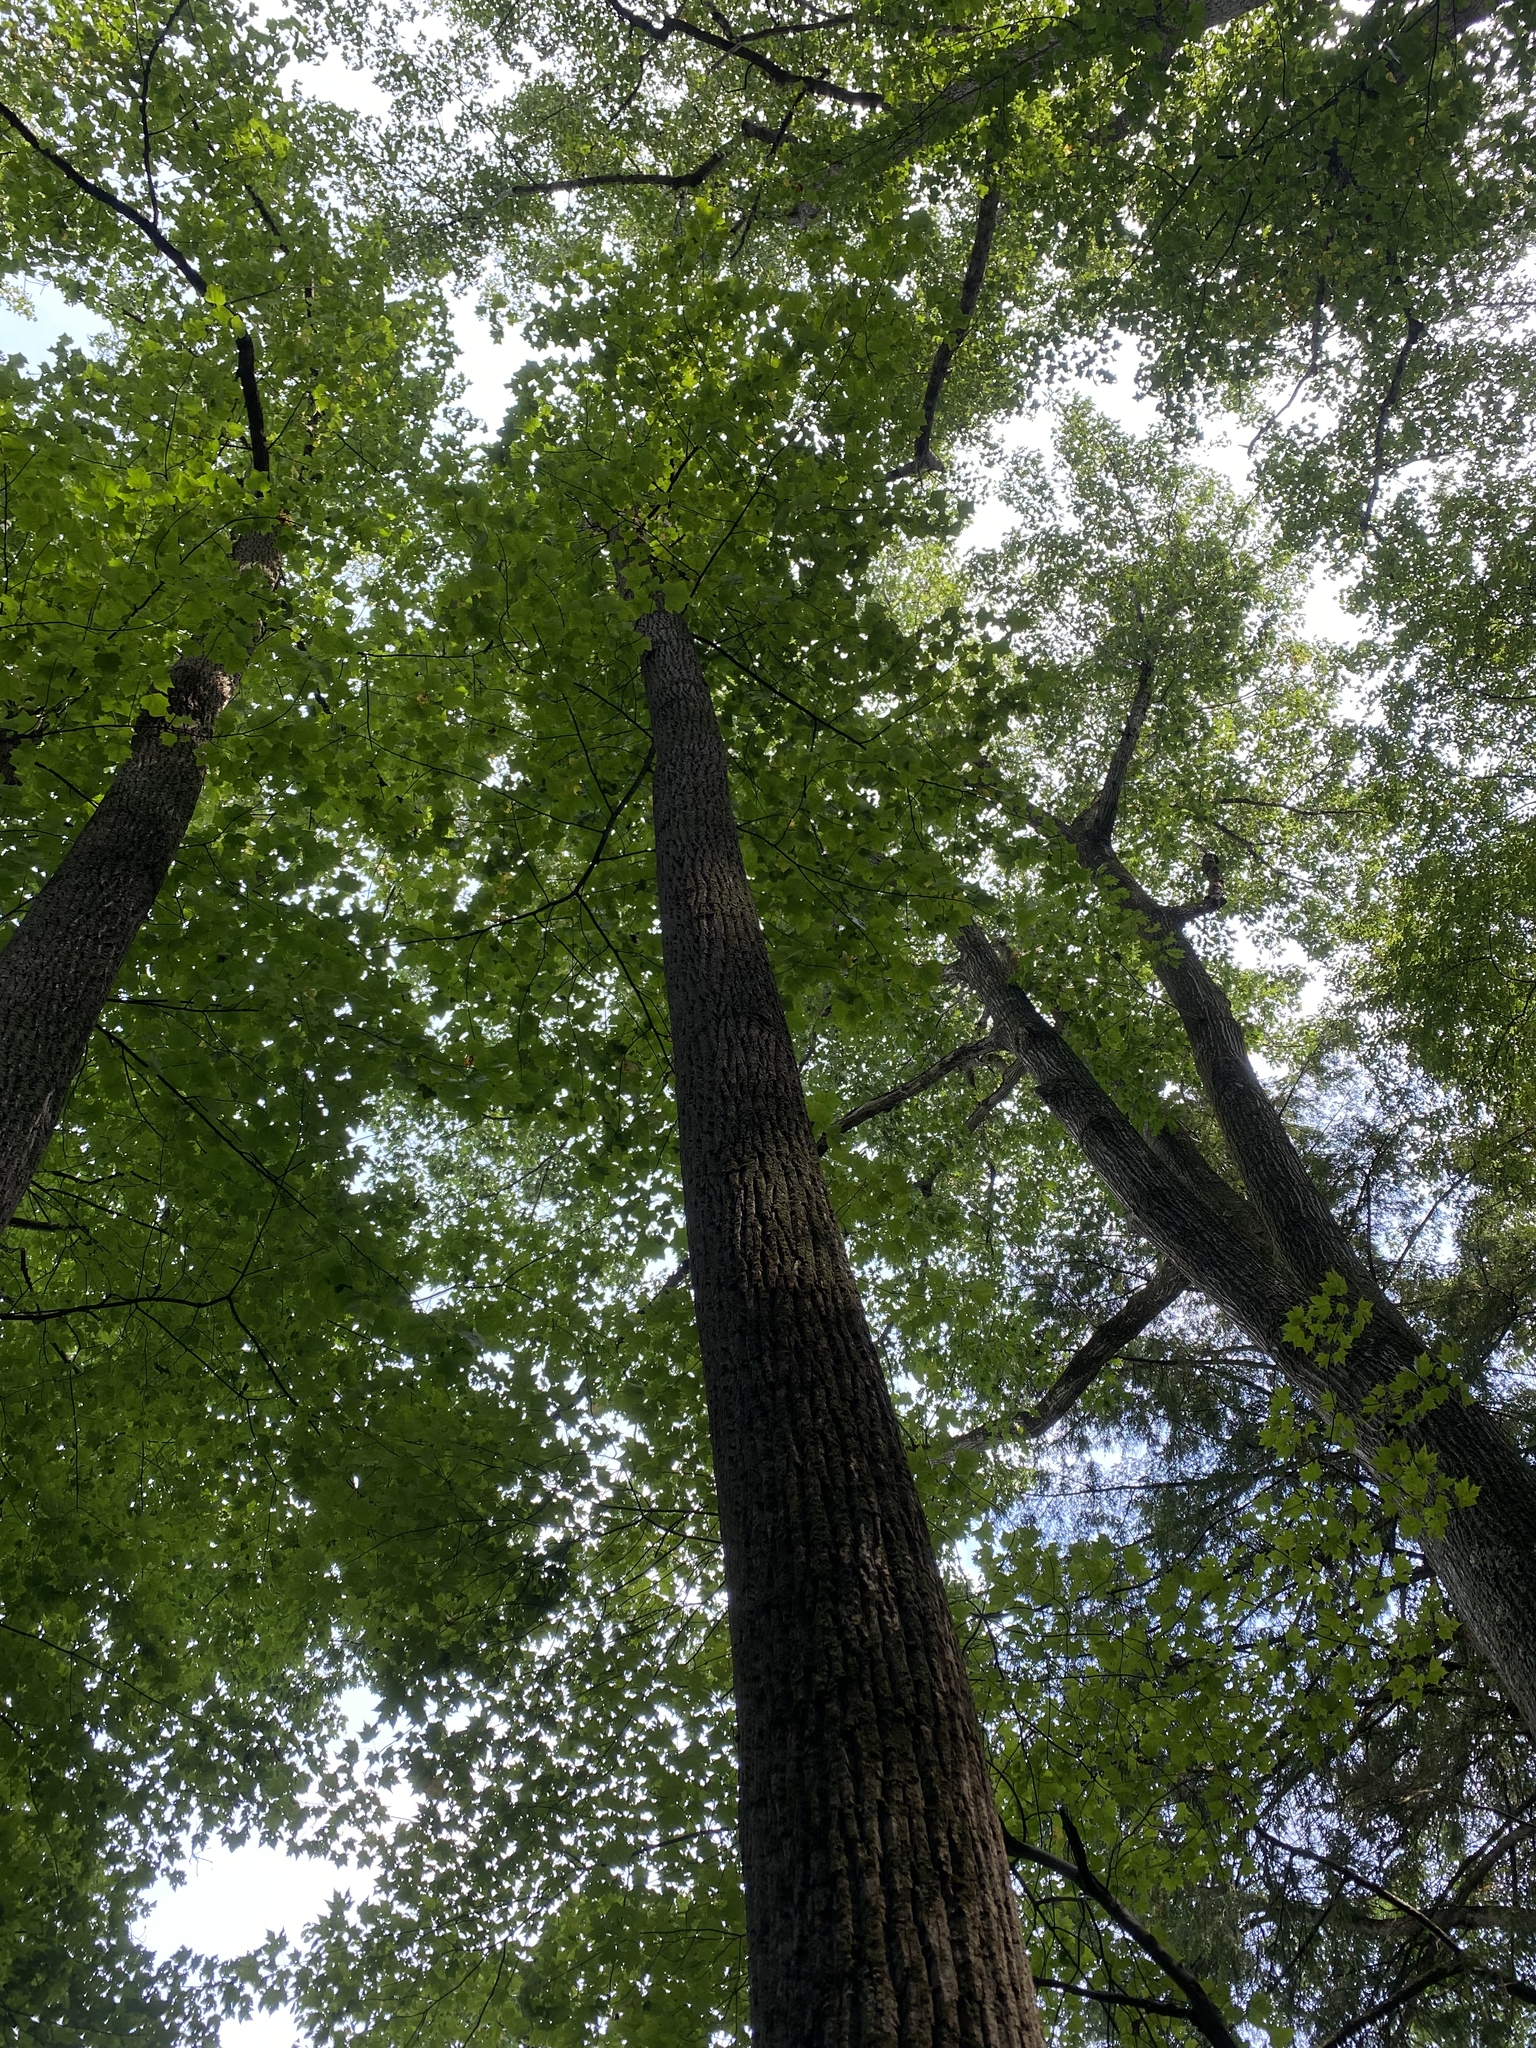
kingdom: Plantae
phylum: Tracheophyta
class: Magnoliopsida
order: Magnoliales
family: Magnoliaceae
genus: Liriodendron
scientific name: Liriodendron tulipifera
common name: Tulip tree
